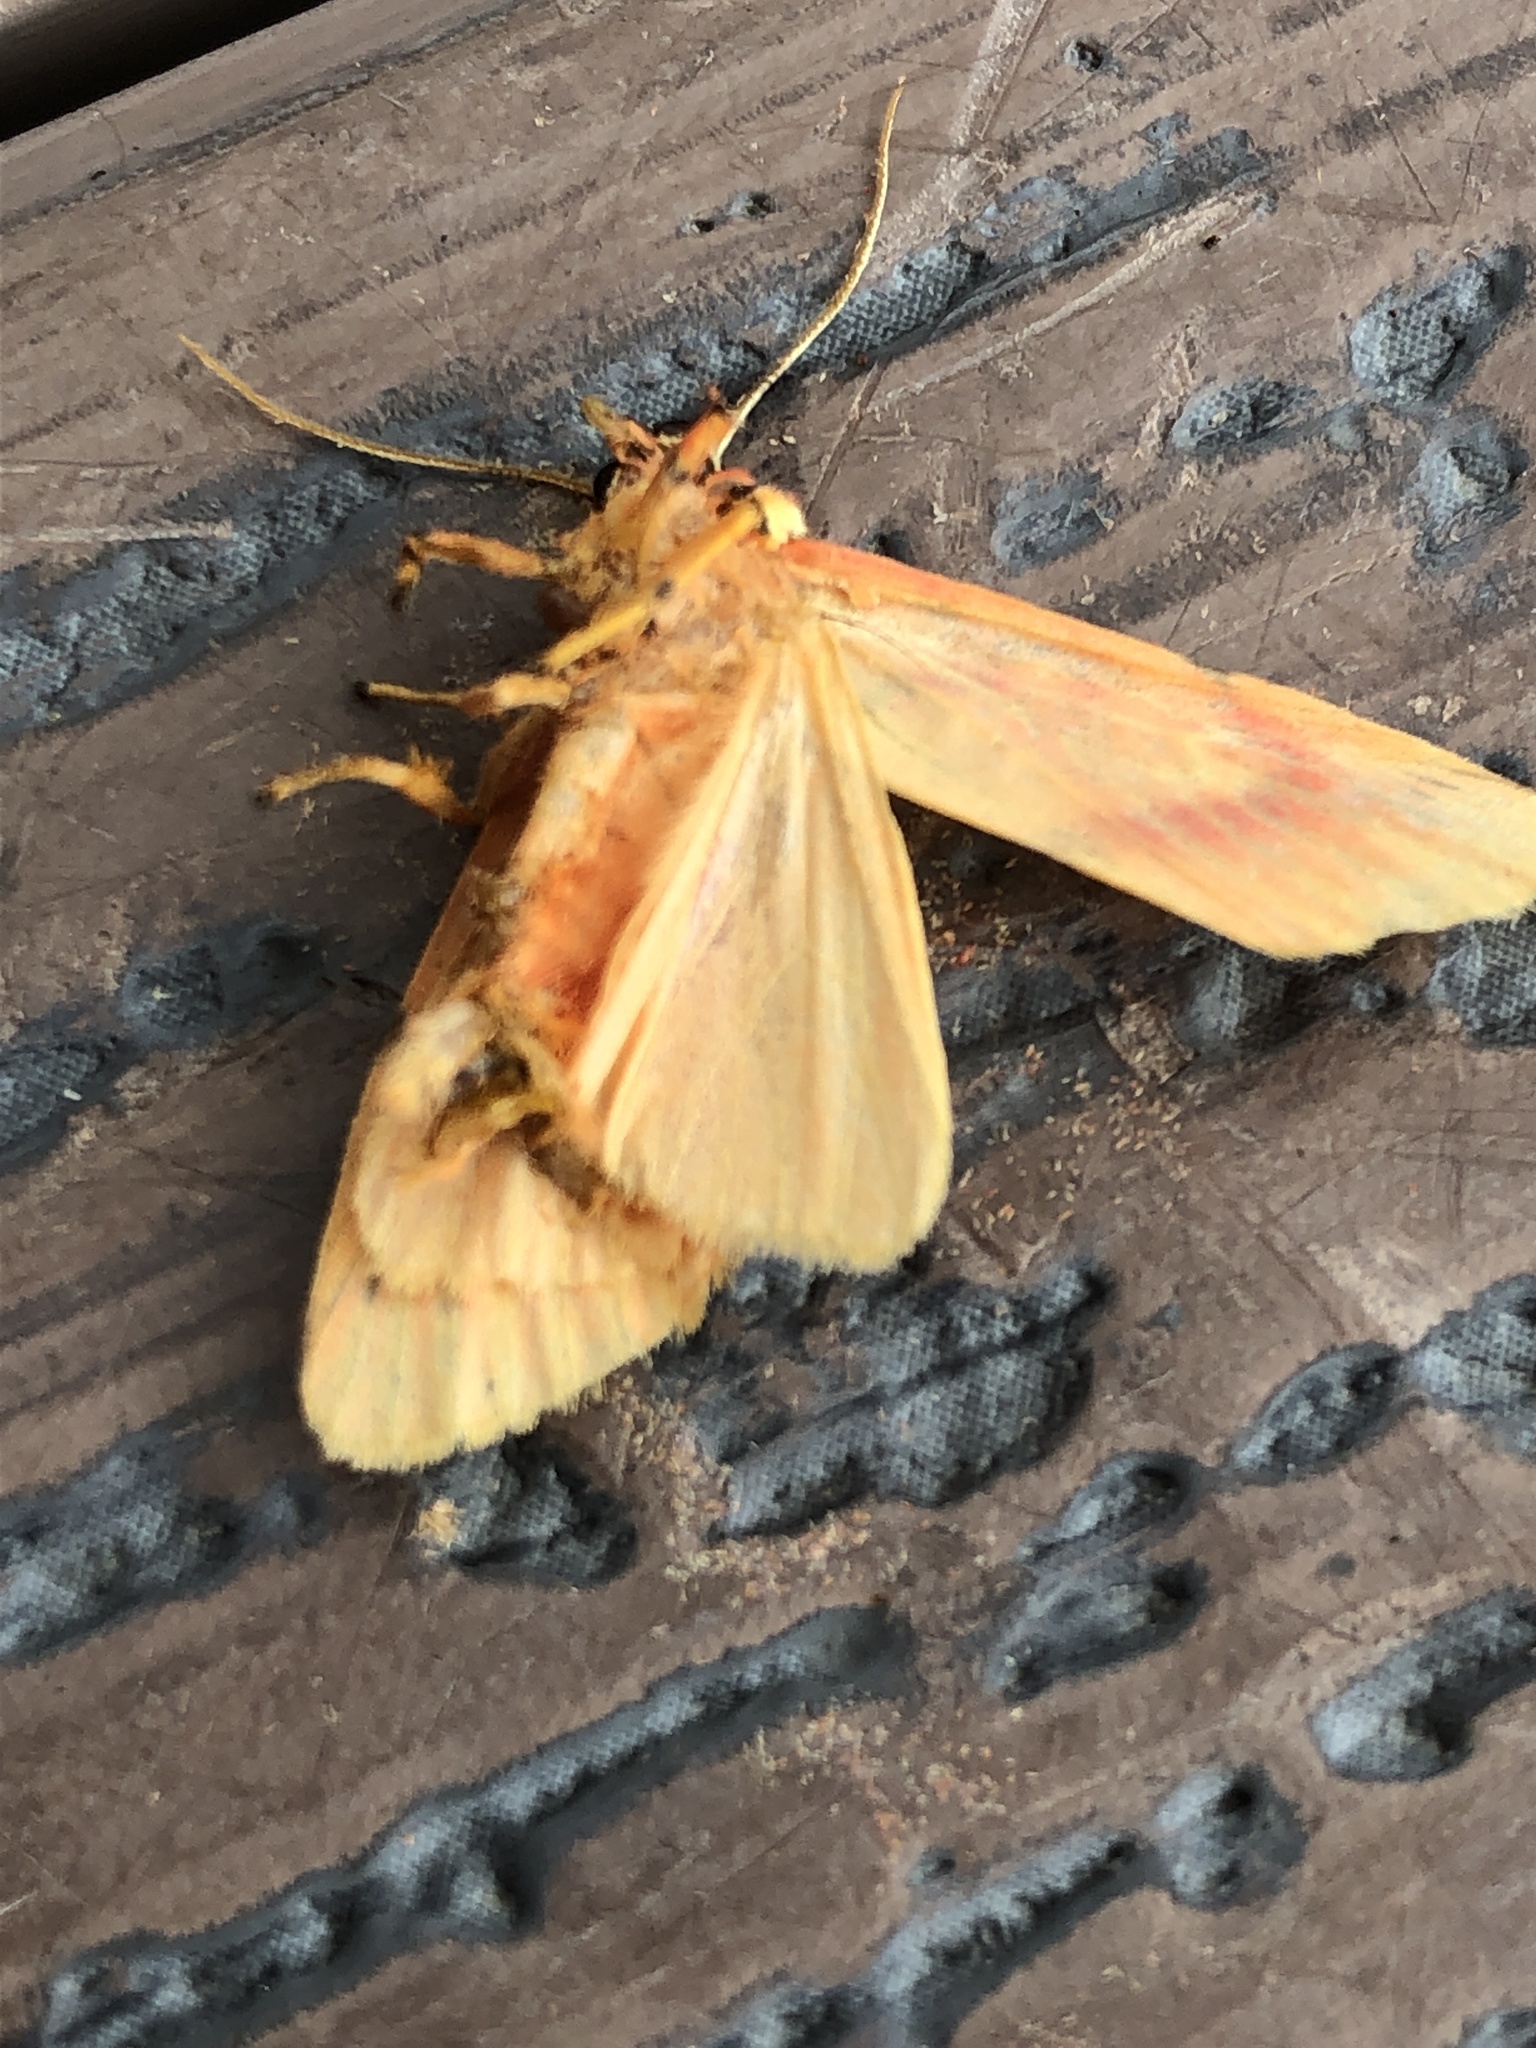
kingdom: Animalia
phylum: Arthropoda
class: Insecta
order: Lepidoptera
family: Erebidae
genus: Barsine
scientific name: Barsine striata
